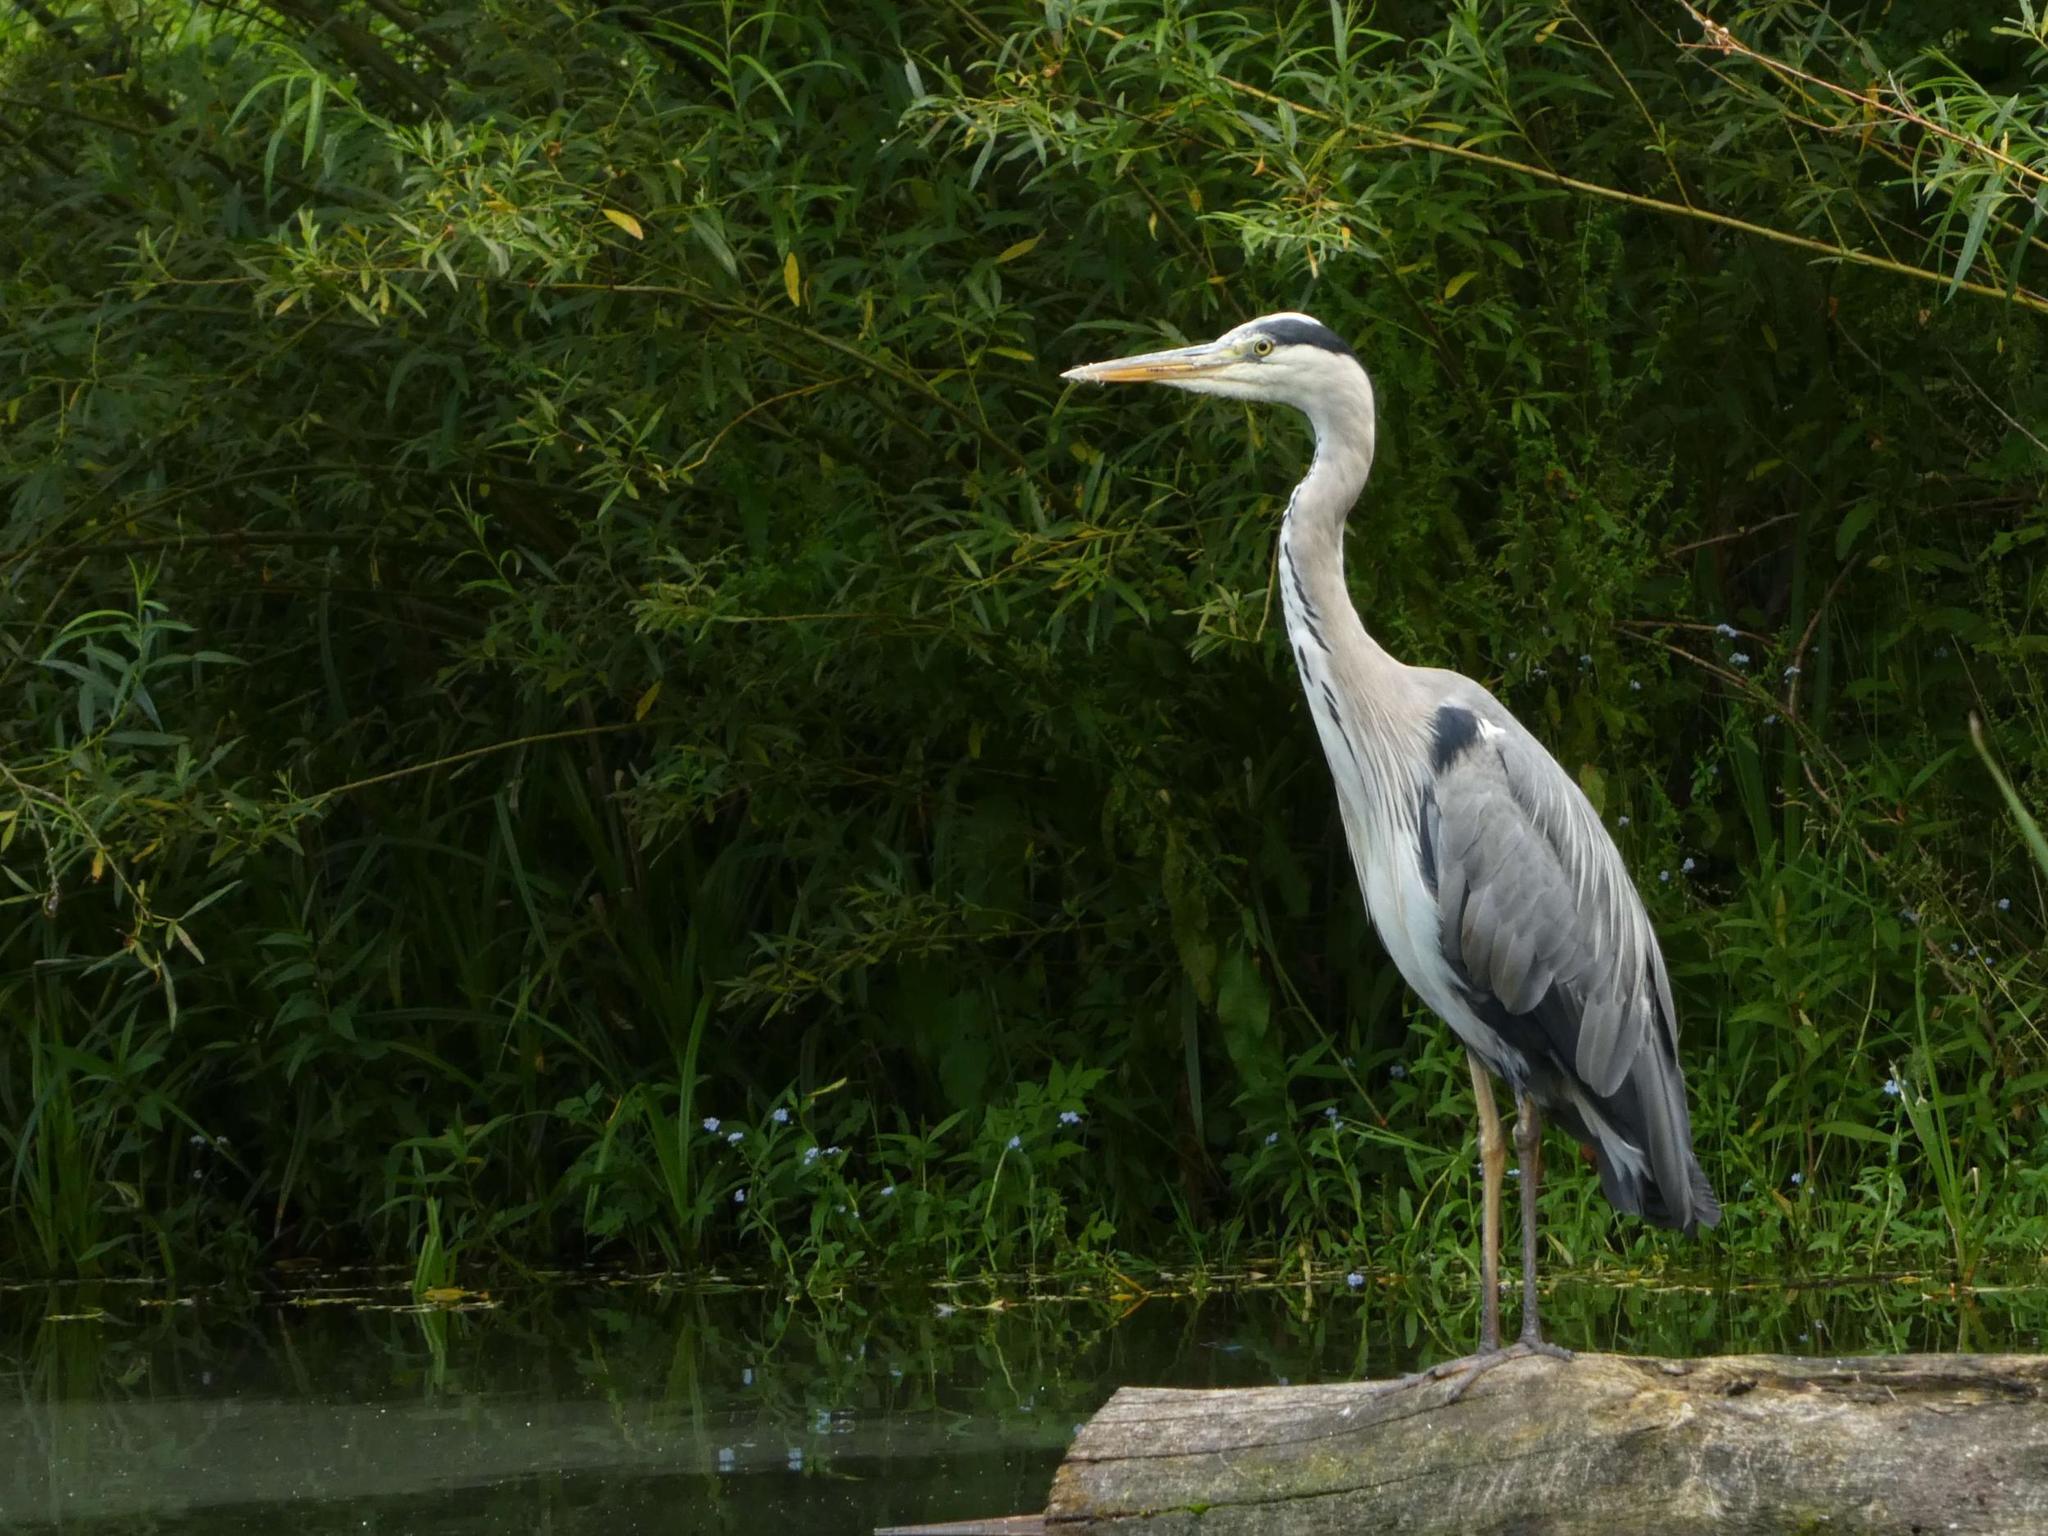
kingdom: Animalia
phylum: Chordata
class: Aves
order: Pelecaniformes
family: Ardeidae
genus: Ardea
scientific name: Ardea cinerea
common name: Grey heron
